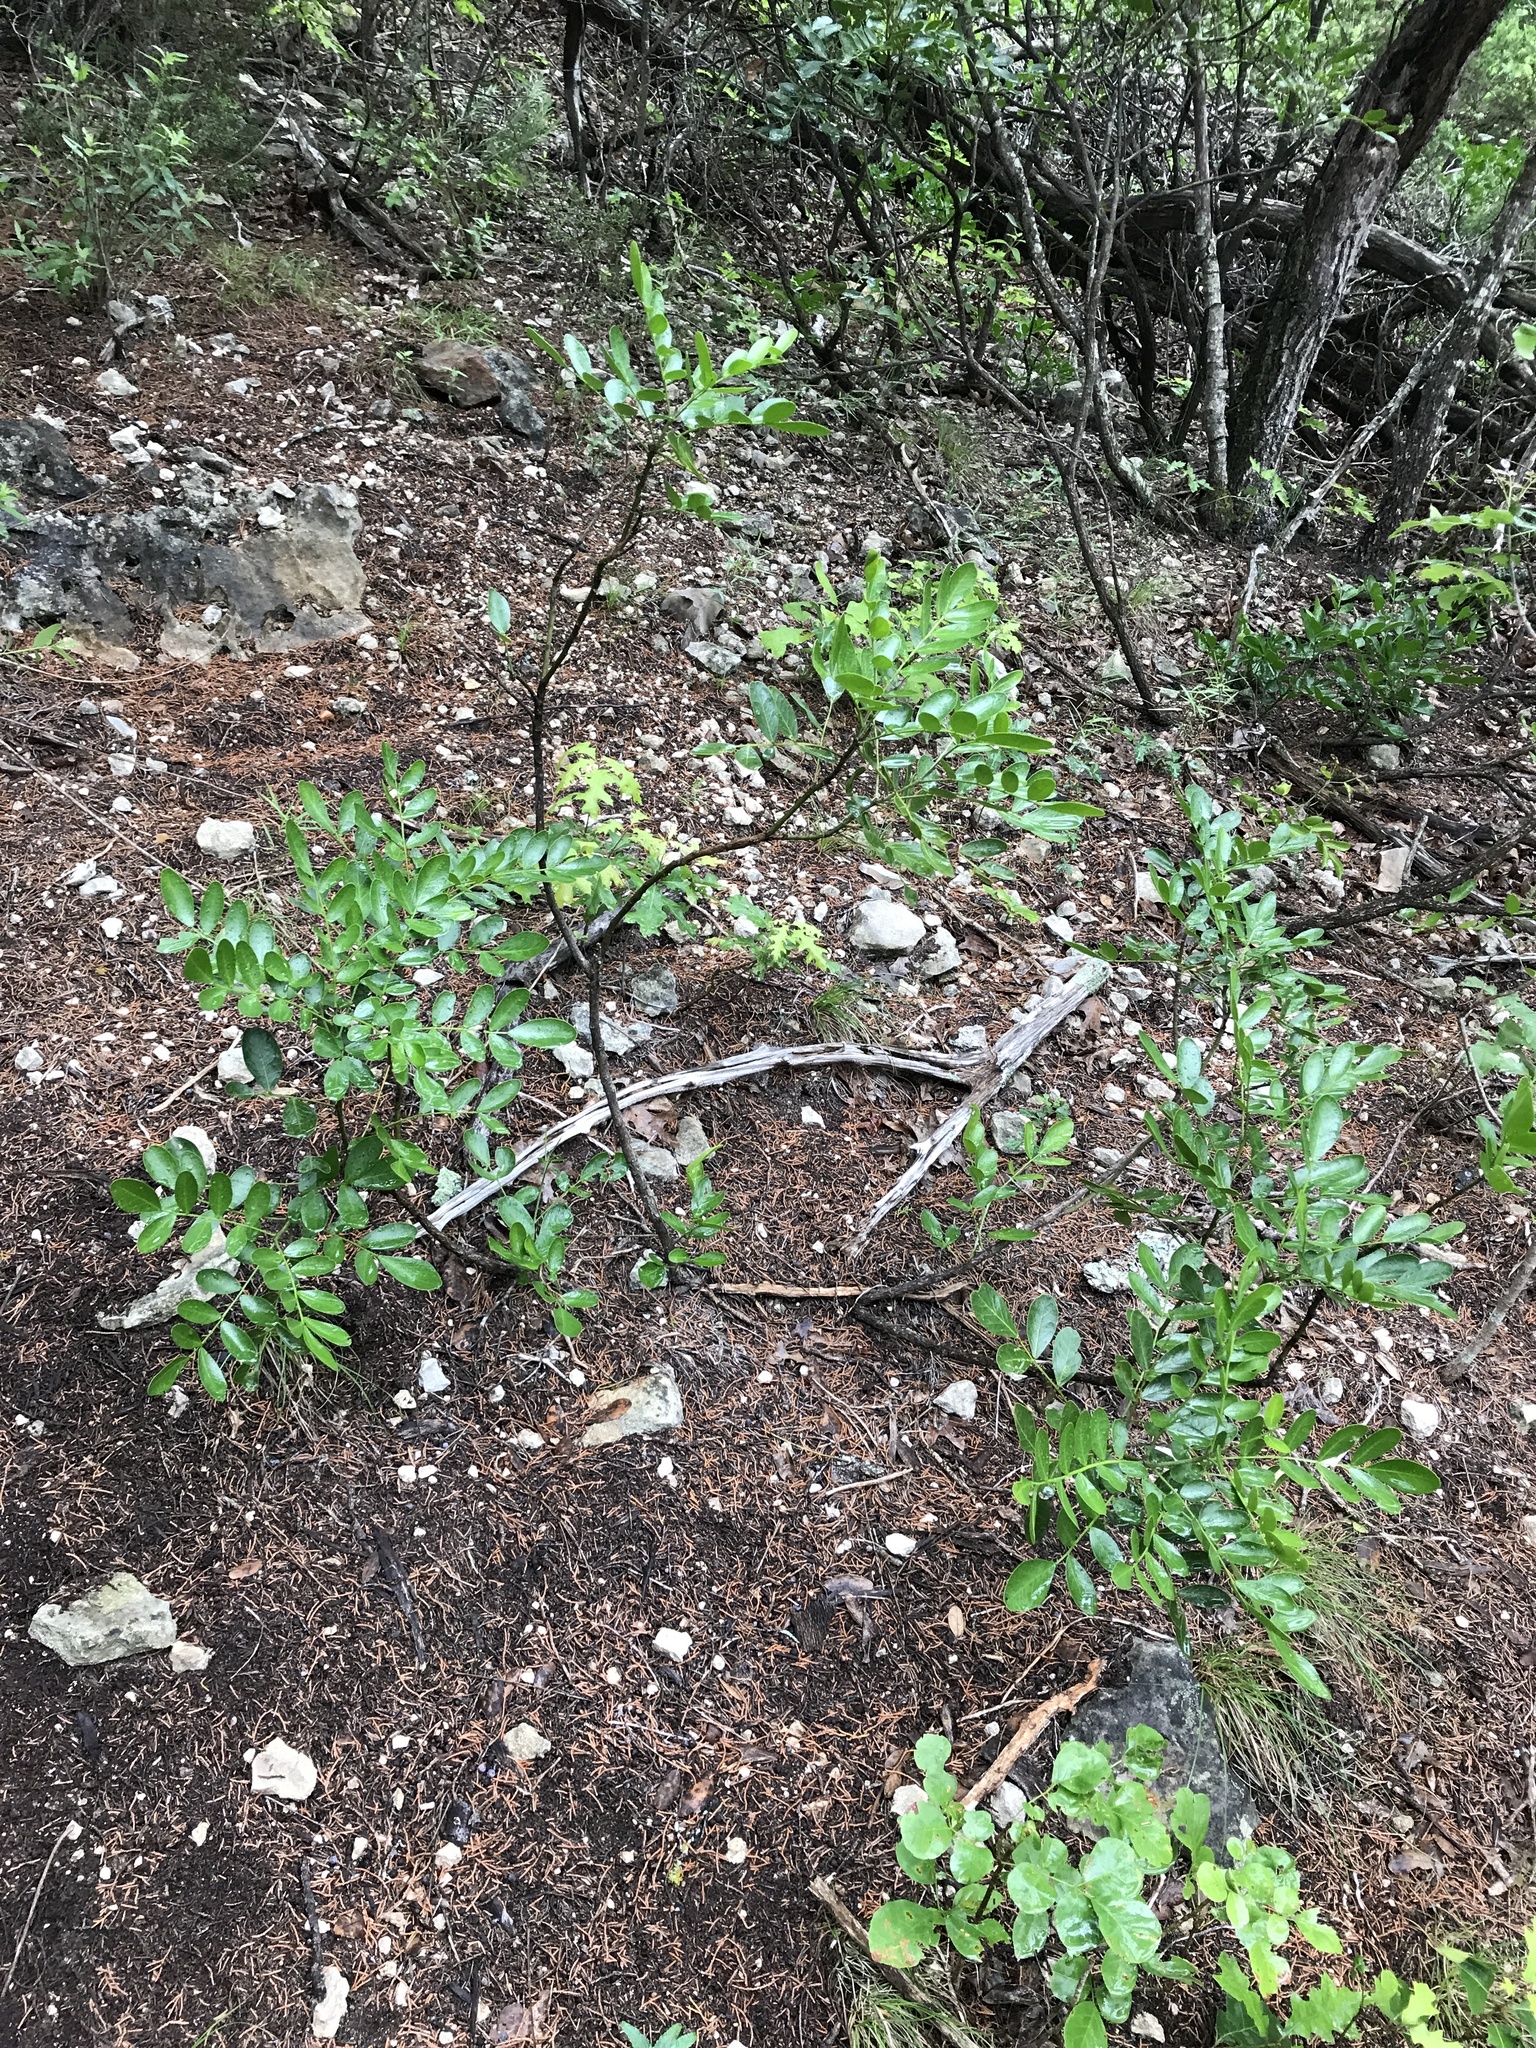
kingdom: Plantae
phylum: Tracheophyta
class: Magnoliopsida
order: Fabales
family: Fabaceae
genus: Dermatophyllum
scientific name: Dermatophyllum secundiflorum
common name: Texas-mountain-laurel
